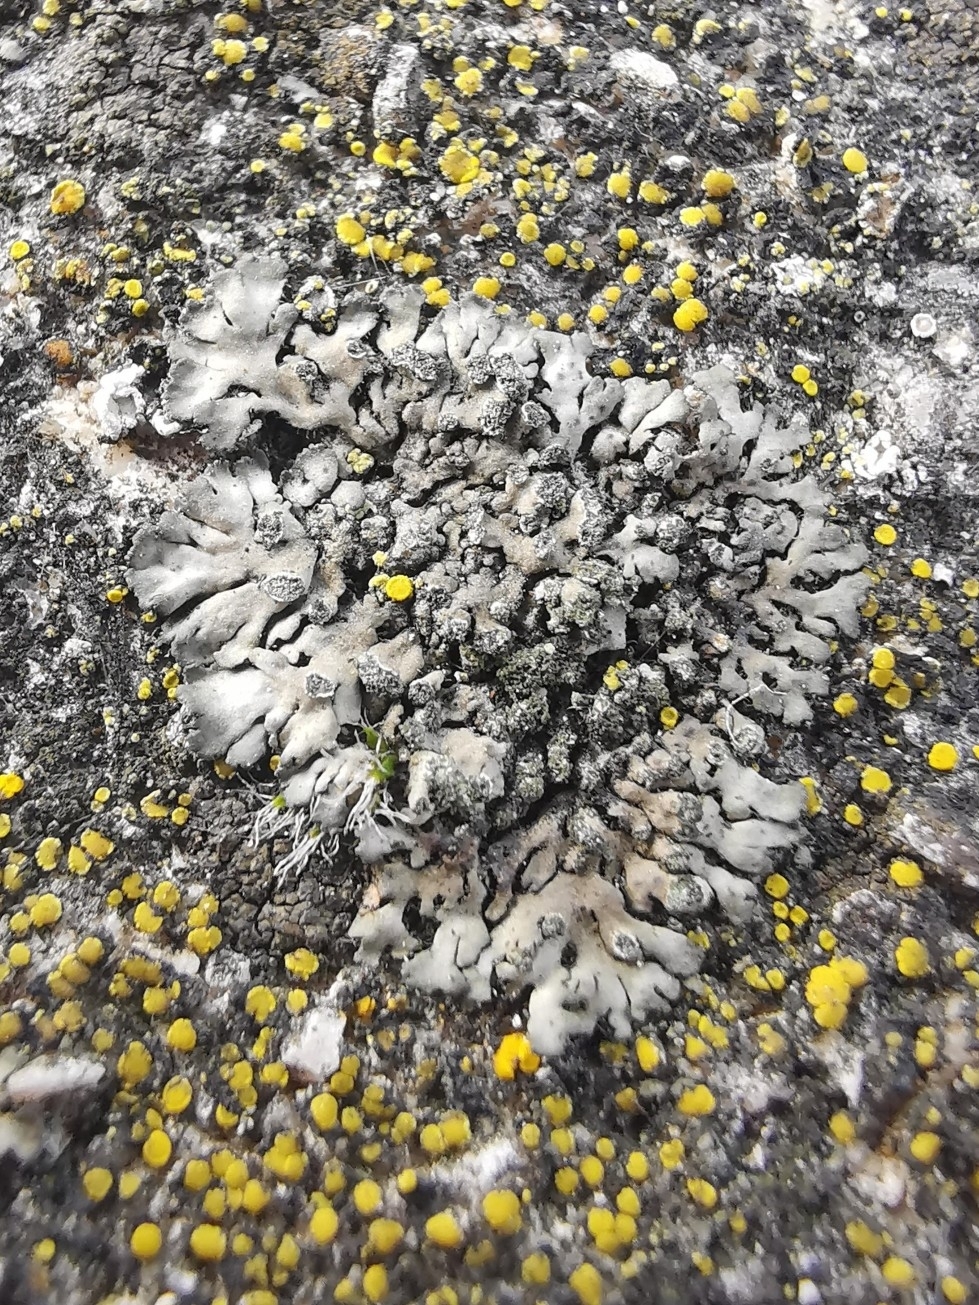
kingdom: Fungi
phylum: Ascomycota
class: Lecanoromycetes
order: Caliciales
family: Physciaceae
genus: Phaeophyscia
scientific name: Phaeophyscia orbicularis
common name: Mealy shadow lichen
